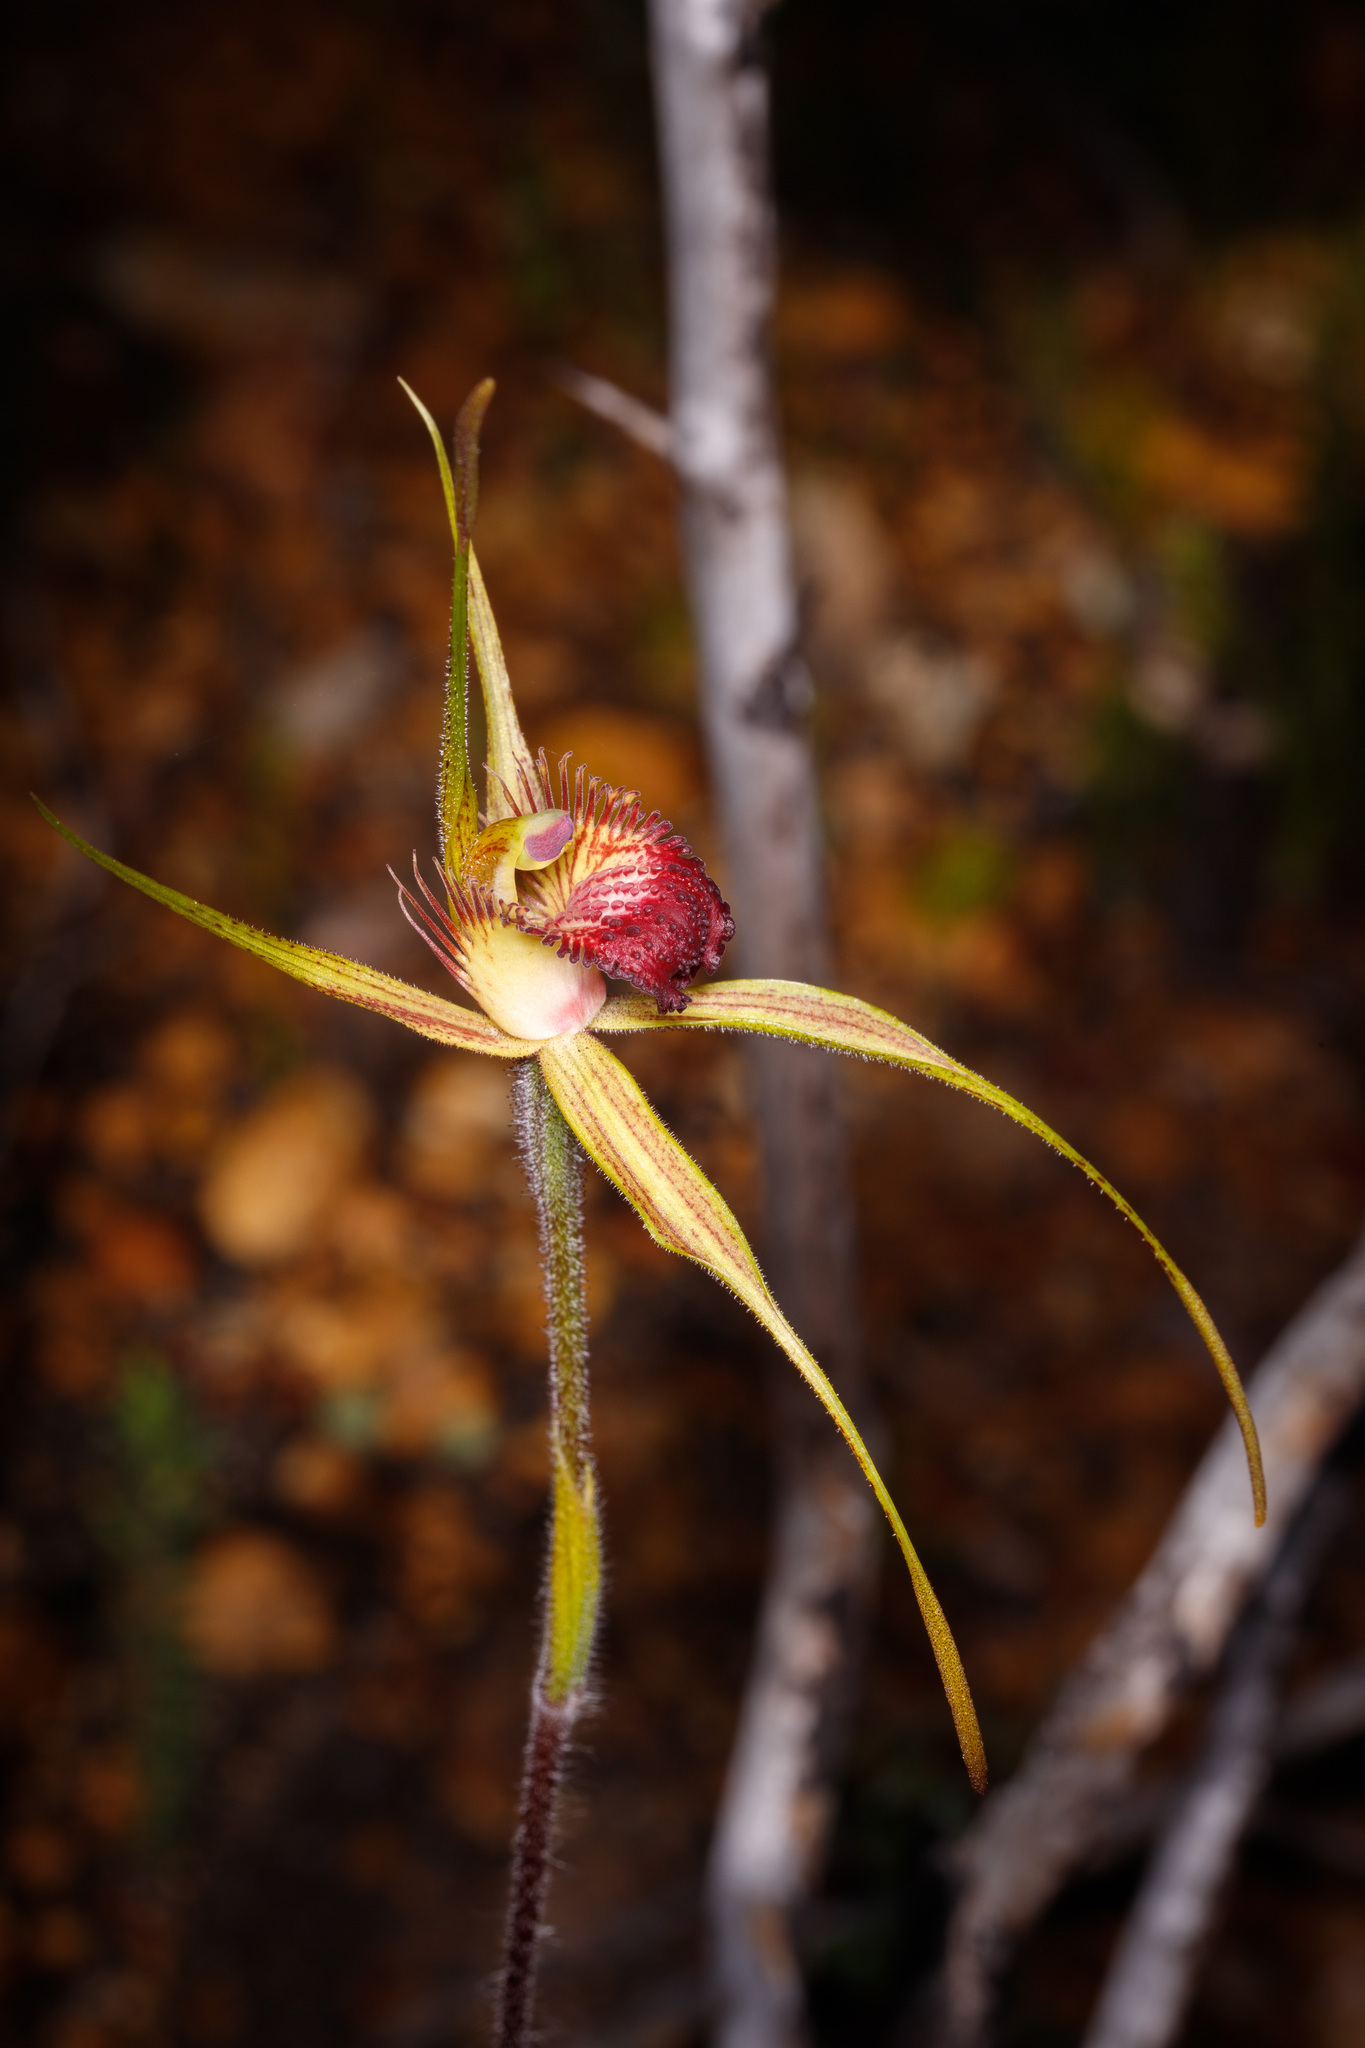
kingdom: Plantae
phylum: Tracheophyta
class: Liliopsida
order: Asparagales
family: Orchidaceae
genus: Caladenia
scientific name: Caladenia pectinata
